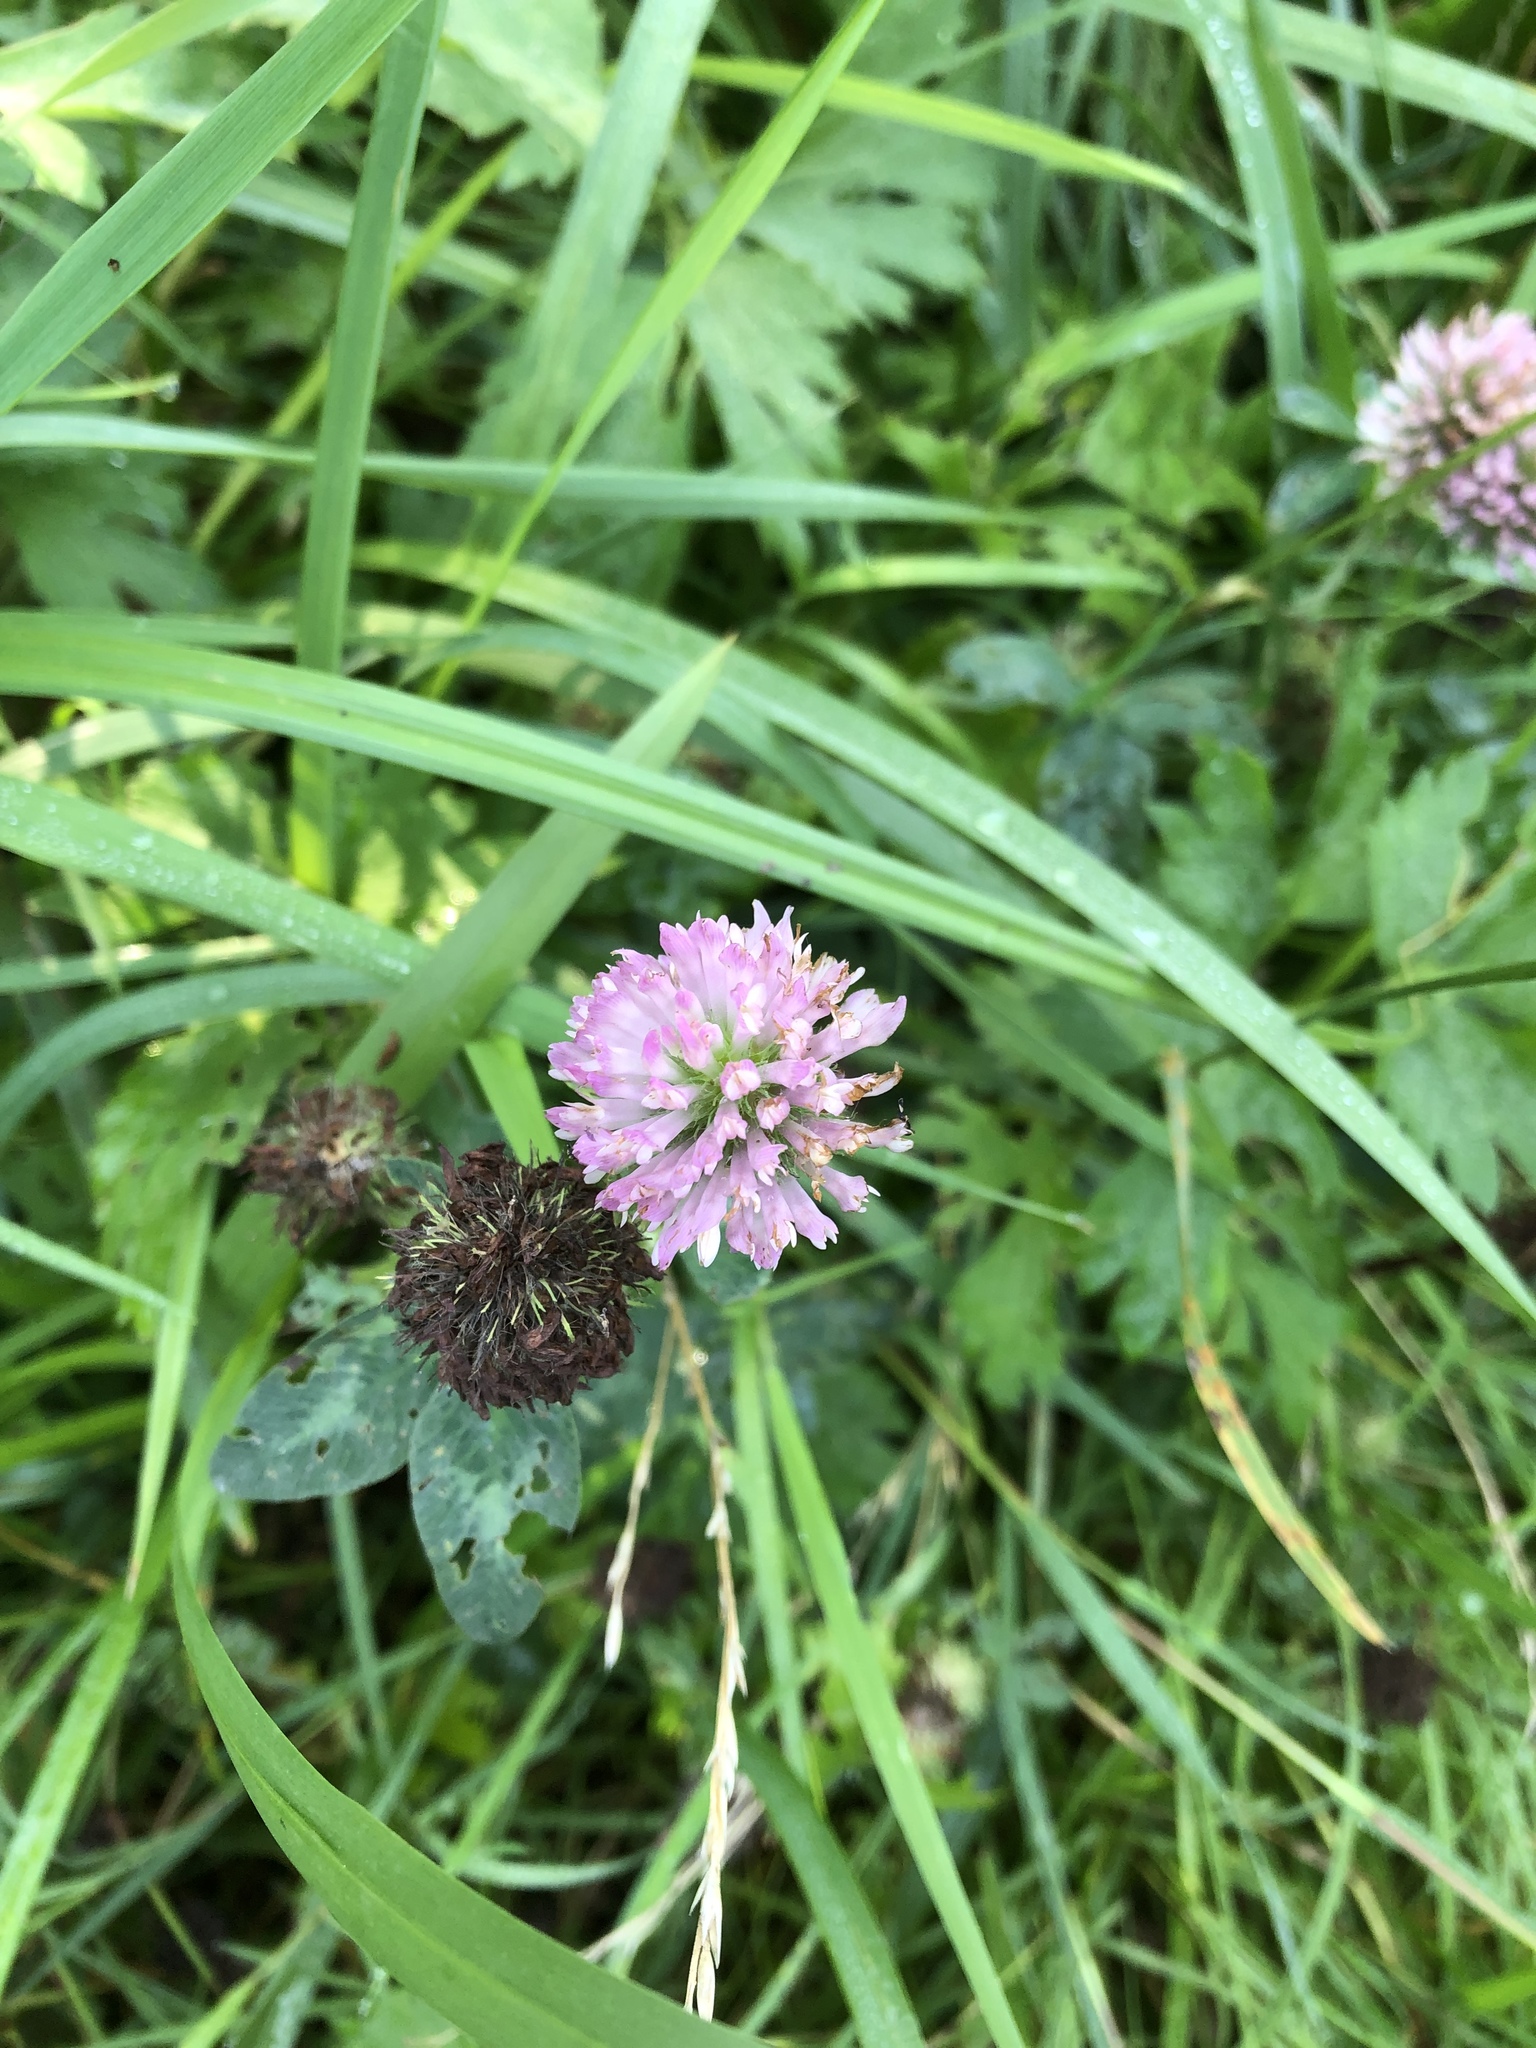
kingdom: Plantae
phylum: Tracheophyta
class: Magnoliopsida
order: Fabales
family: Fabaceae
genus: Trifolium
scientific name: Trifolium pratense
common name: Red clover
